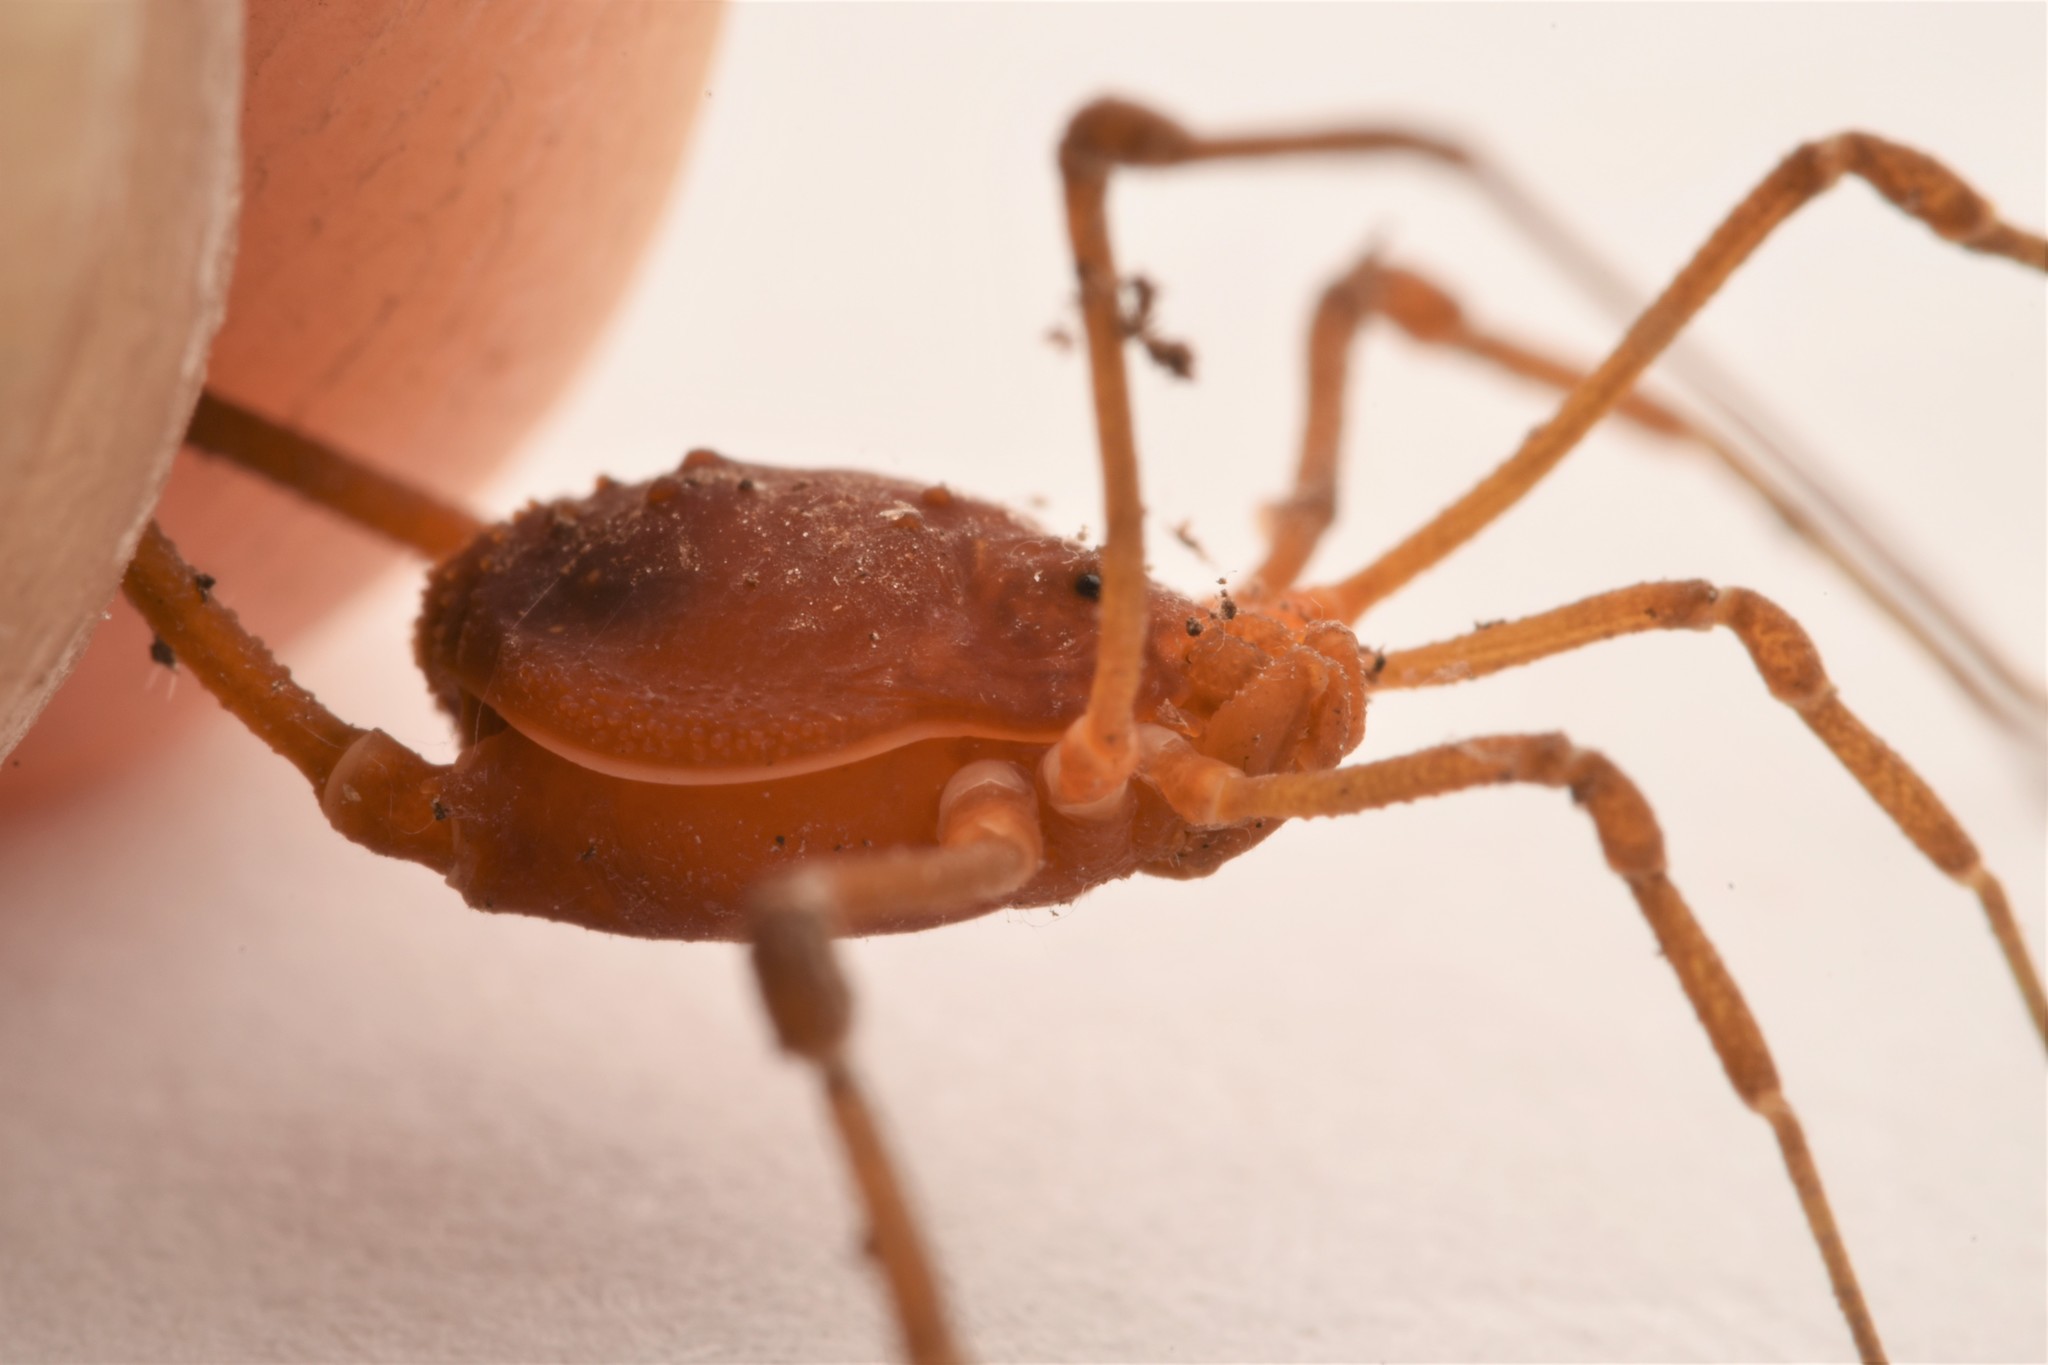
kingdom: Animalia
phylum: Arthropoda
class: Arachnida
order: Opiliones
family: Cosmetidae
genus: Libitioides
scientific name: Libitioides sayi
